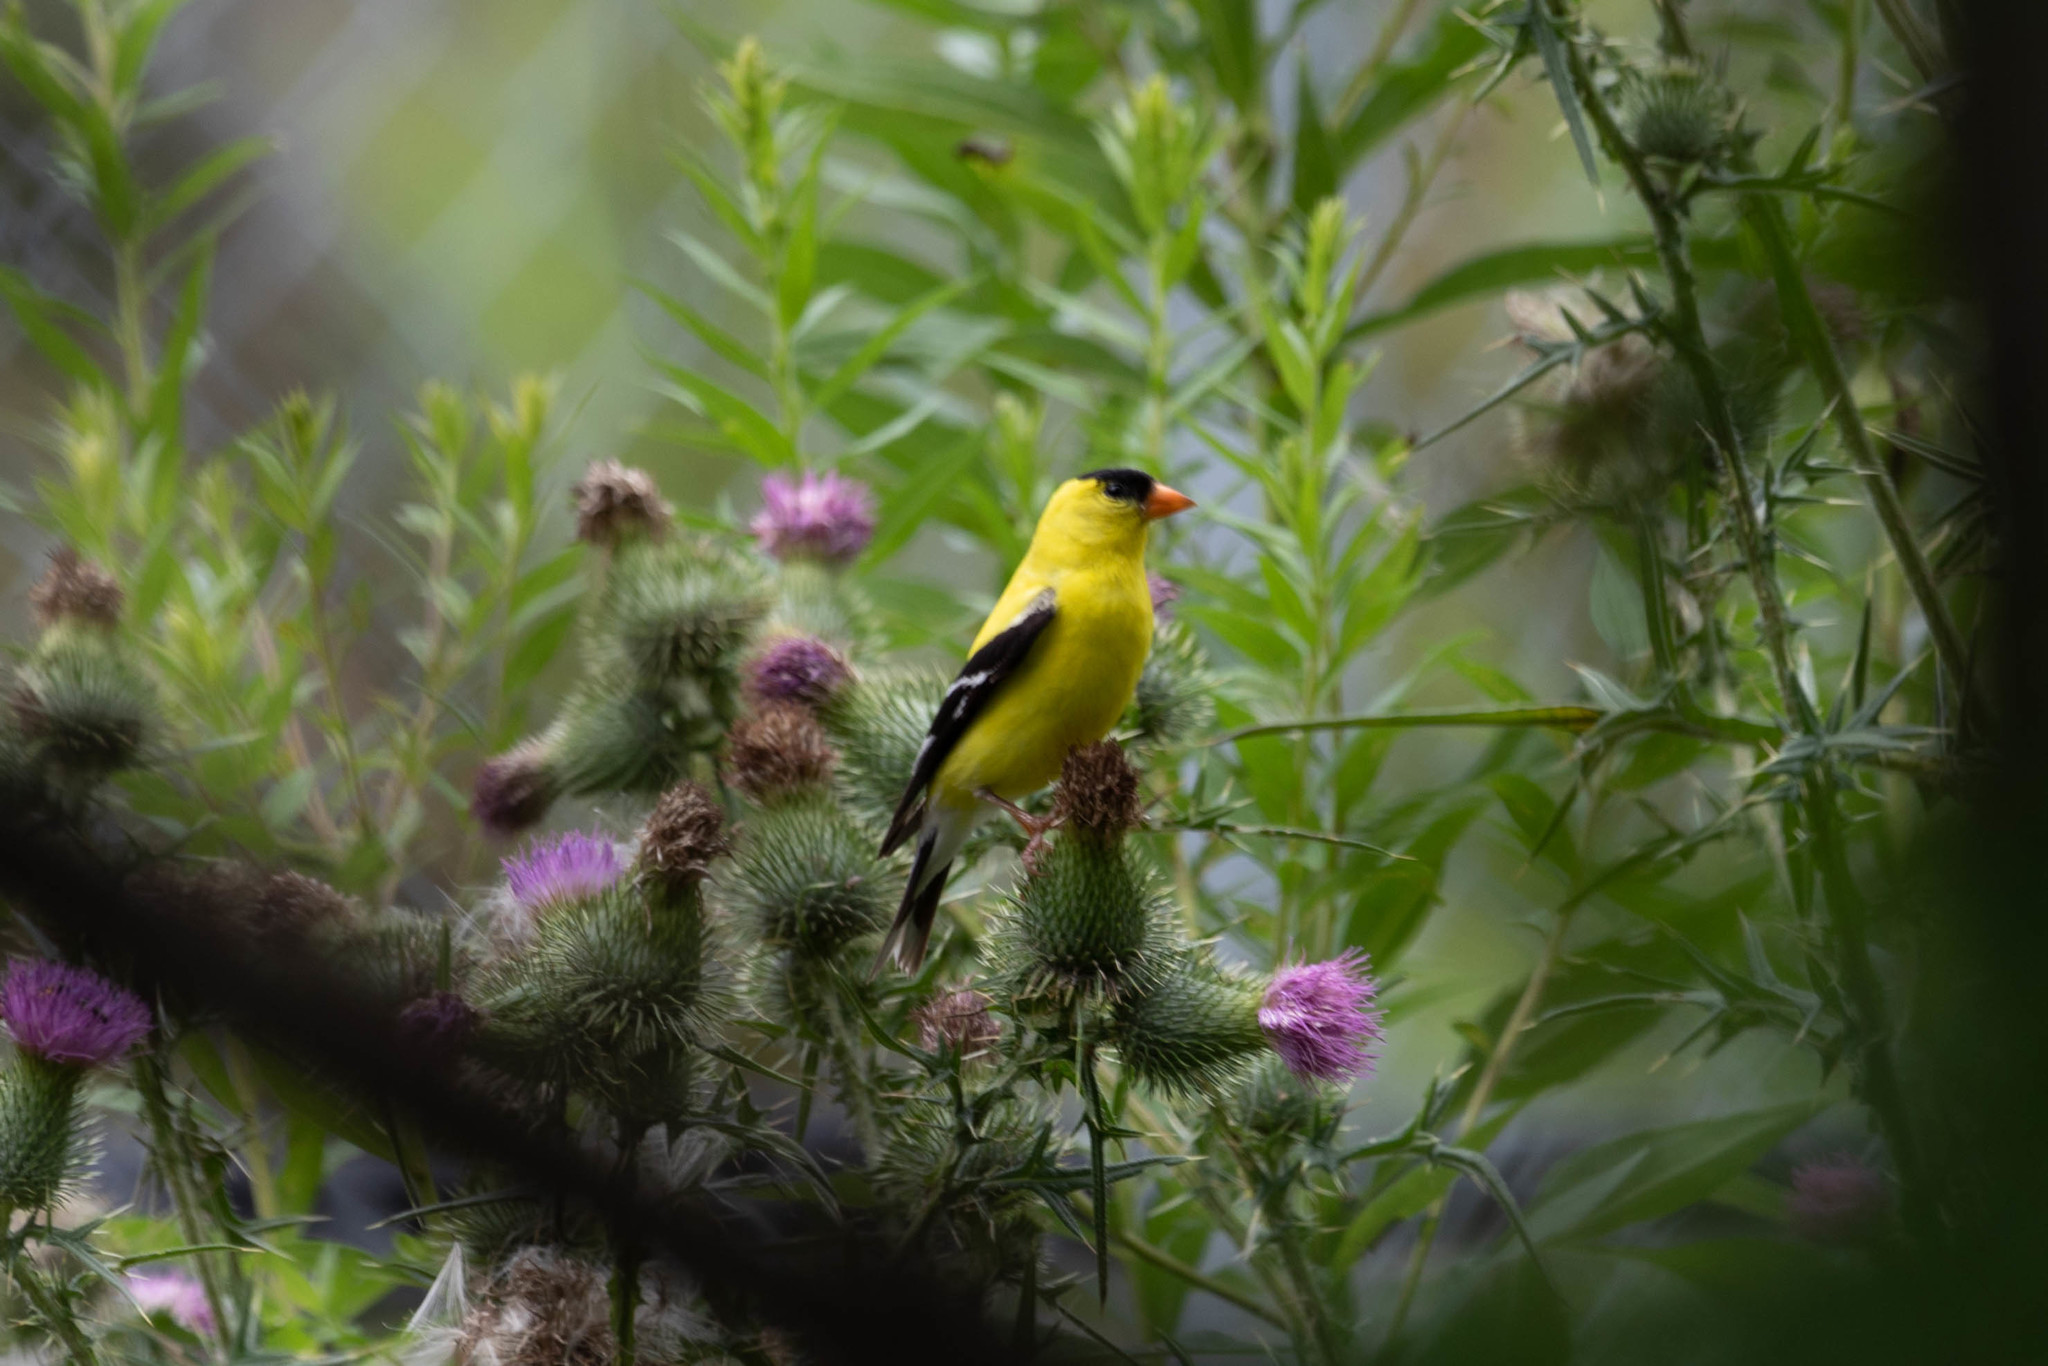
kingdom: Animalia
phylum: Chordata
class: Aves
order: Passeriformes
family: Fringillidae
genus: Spinus
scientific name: Spinus tristis
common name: American goldfinch
